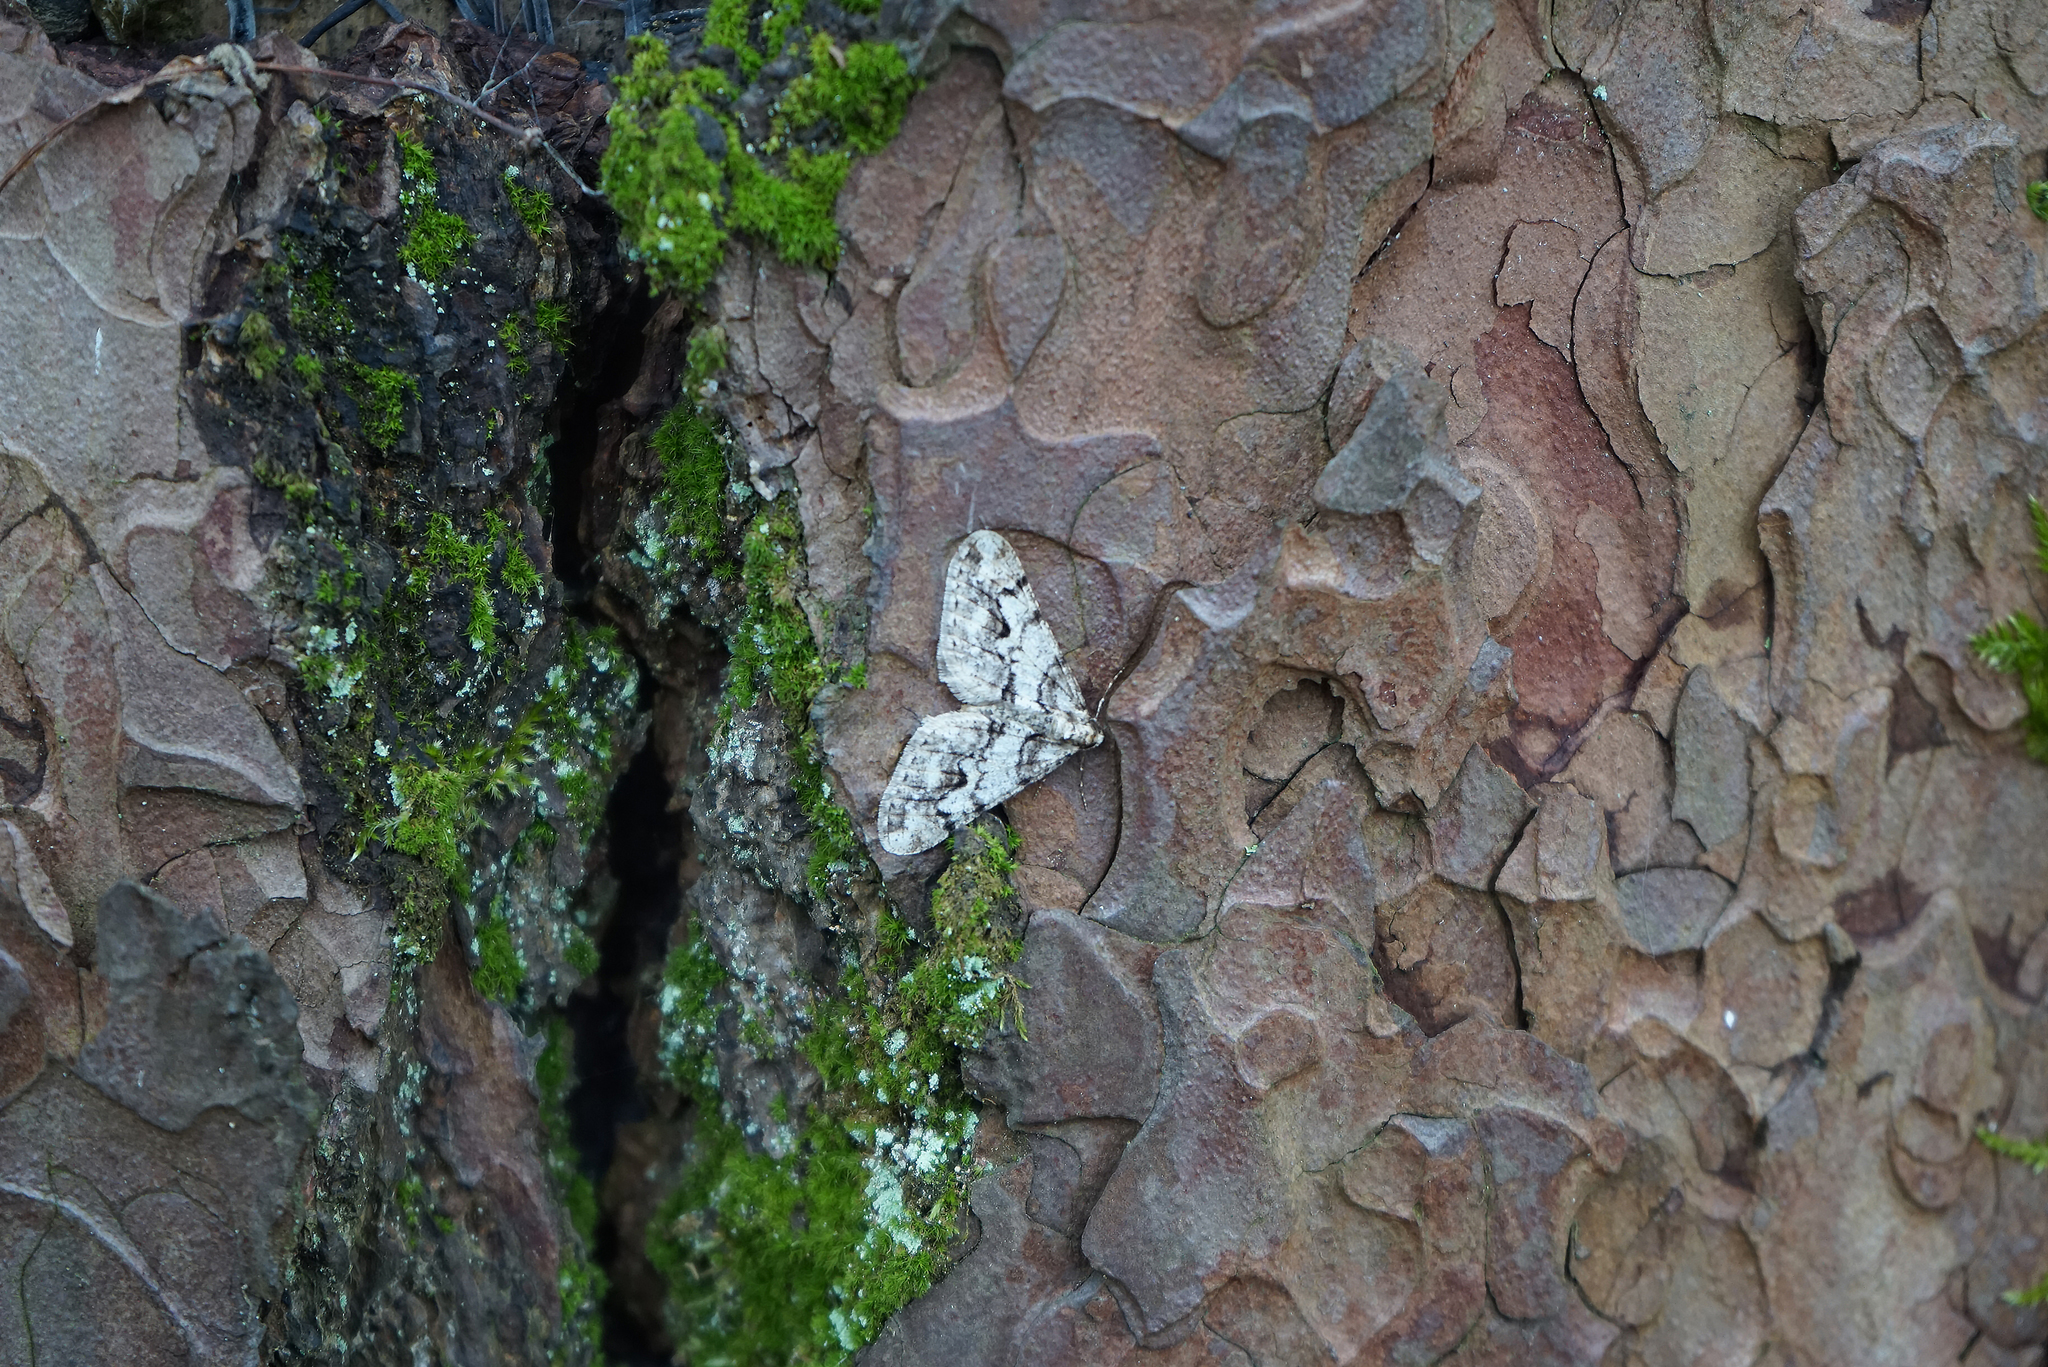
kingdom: Animalia
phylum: Arthropoda
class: Insecta
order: Lepidoptera
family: Geometridae
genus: Agriopis
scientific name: Agriopis leucophaearia
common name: Spring usher
